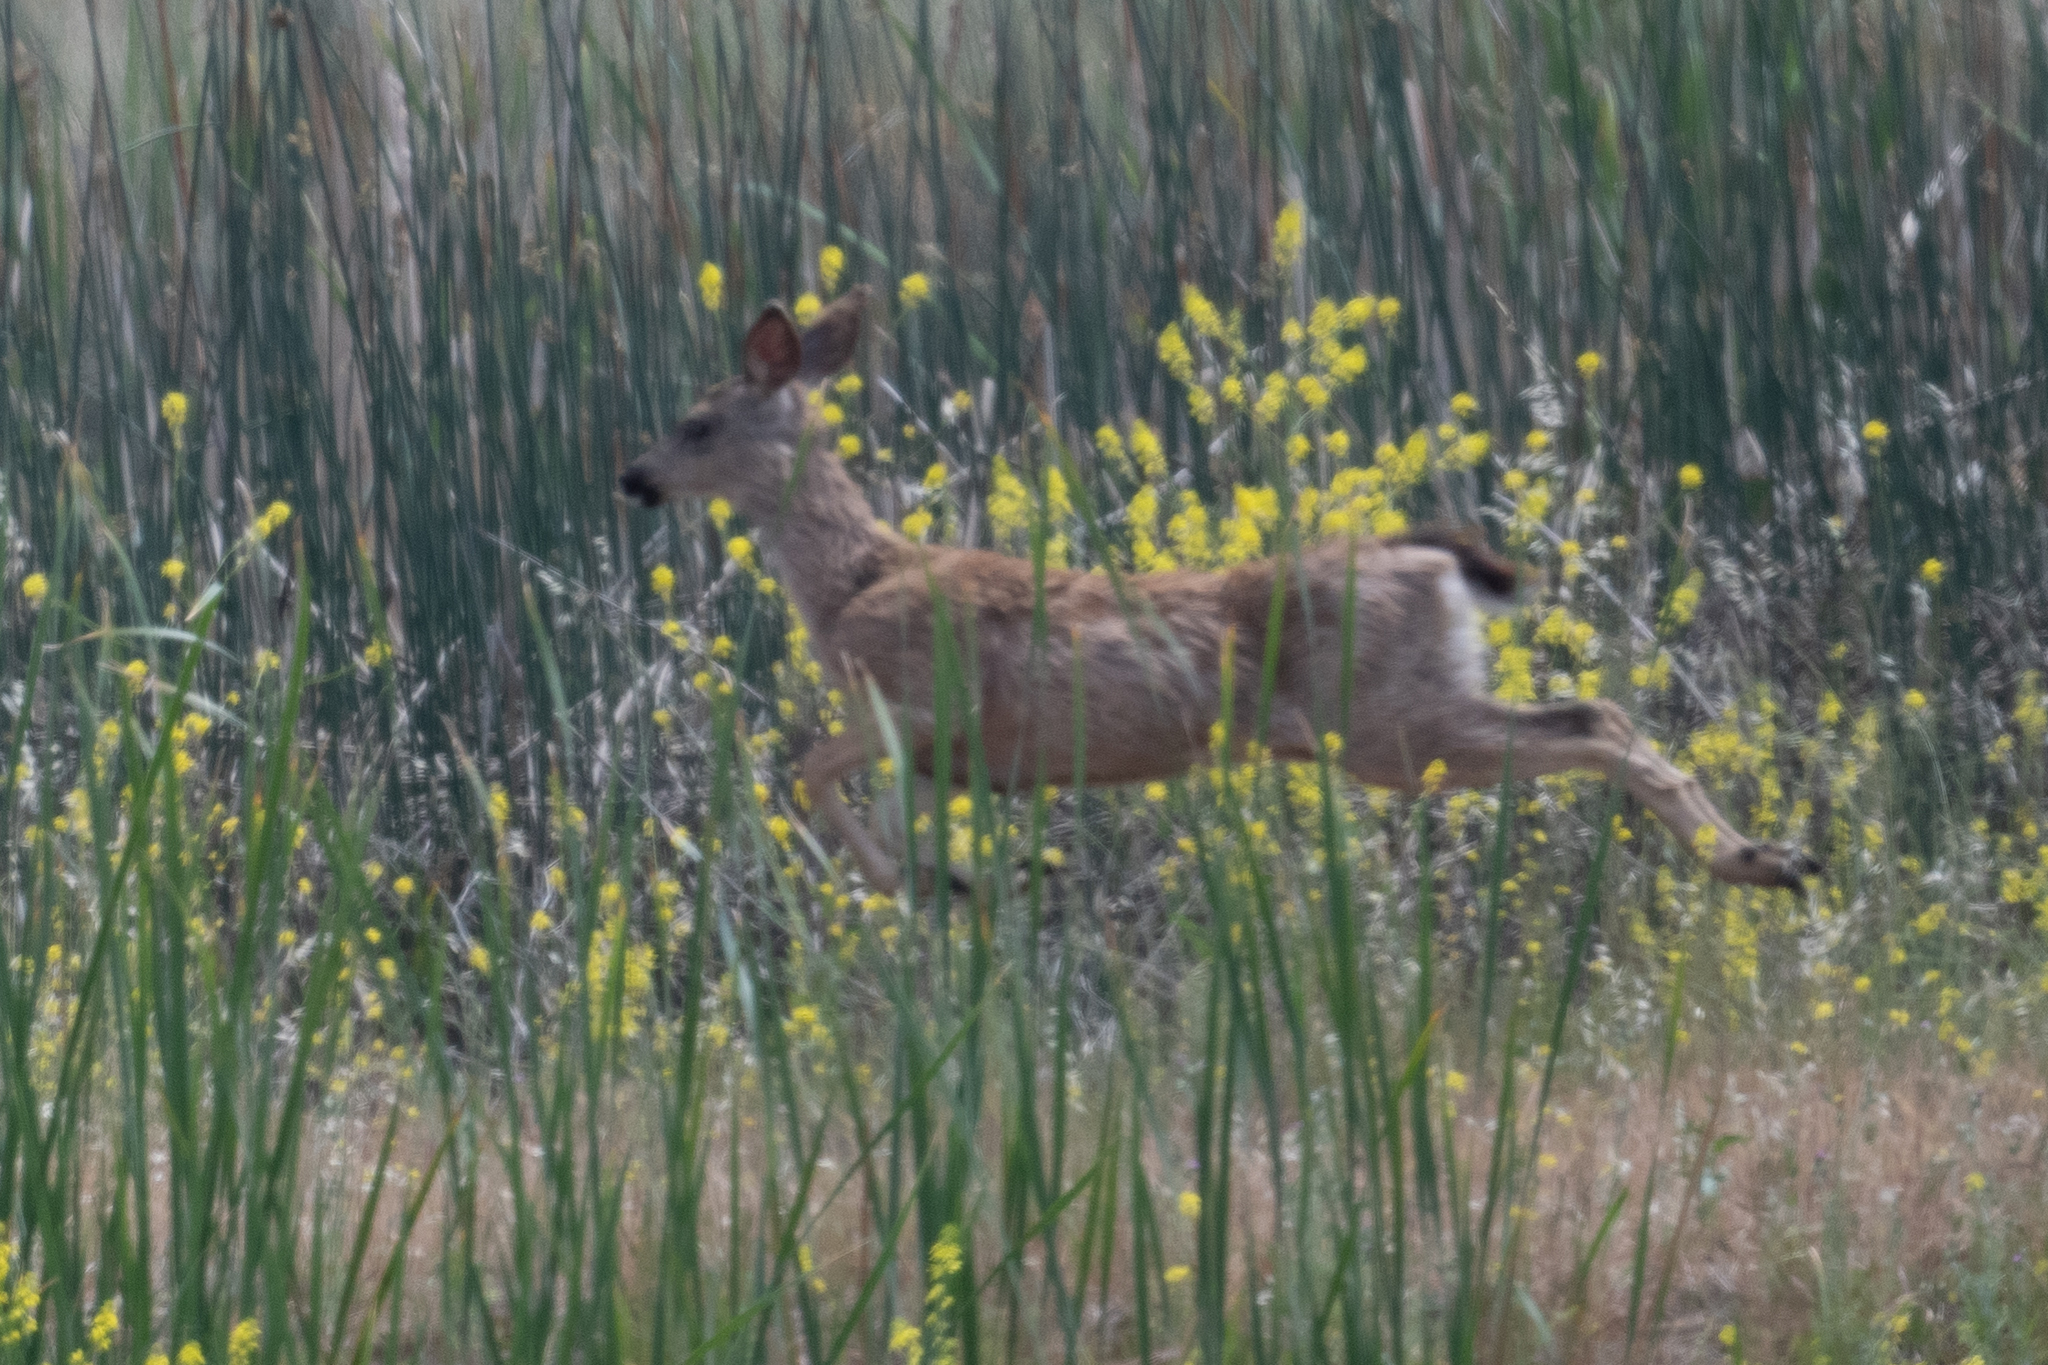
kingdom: Animalia
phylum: Chordata
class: Mammalia
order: Artiodactyla
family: Cervidae
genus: Odocoileus
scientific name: Odocoileus hemionus
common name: Mule deer
